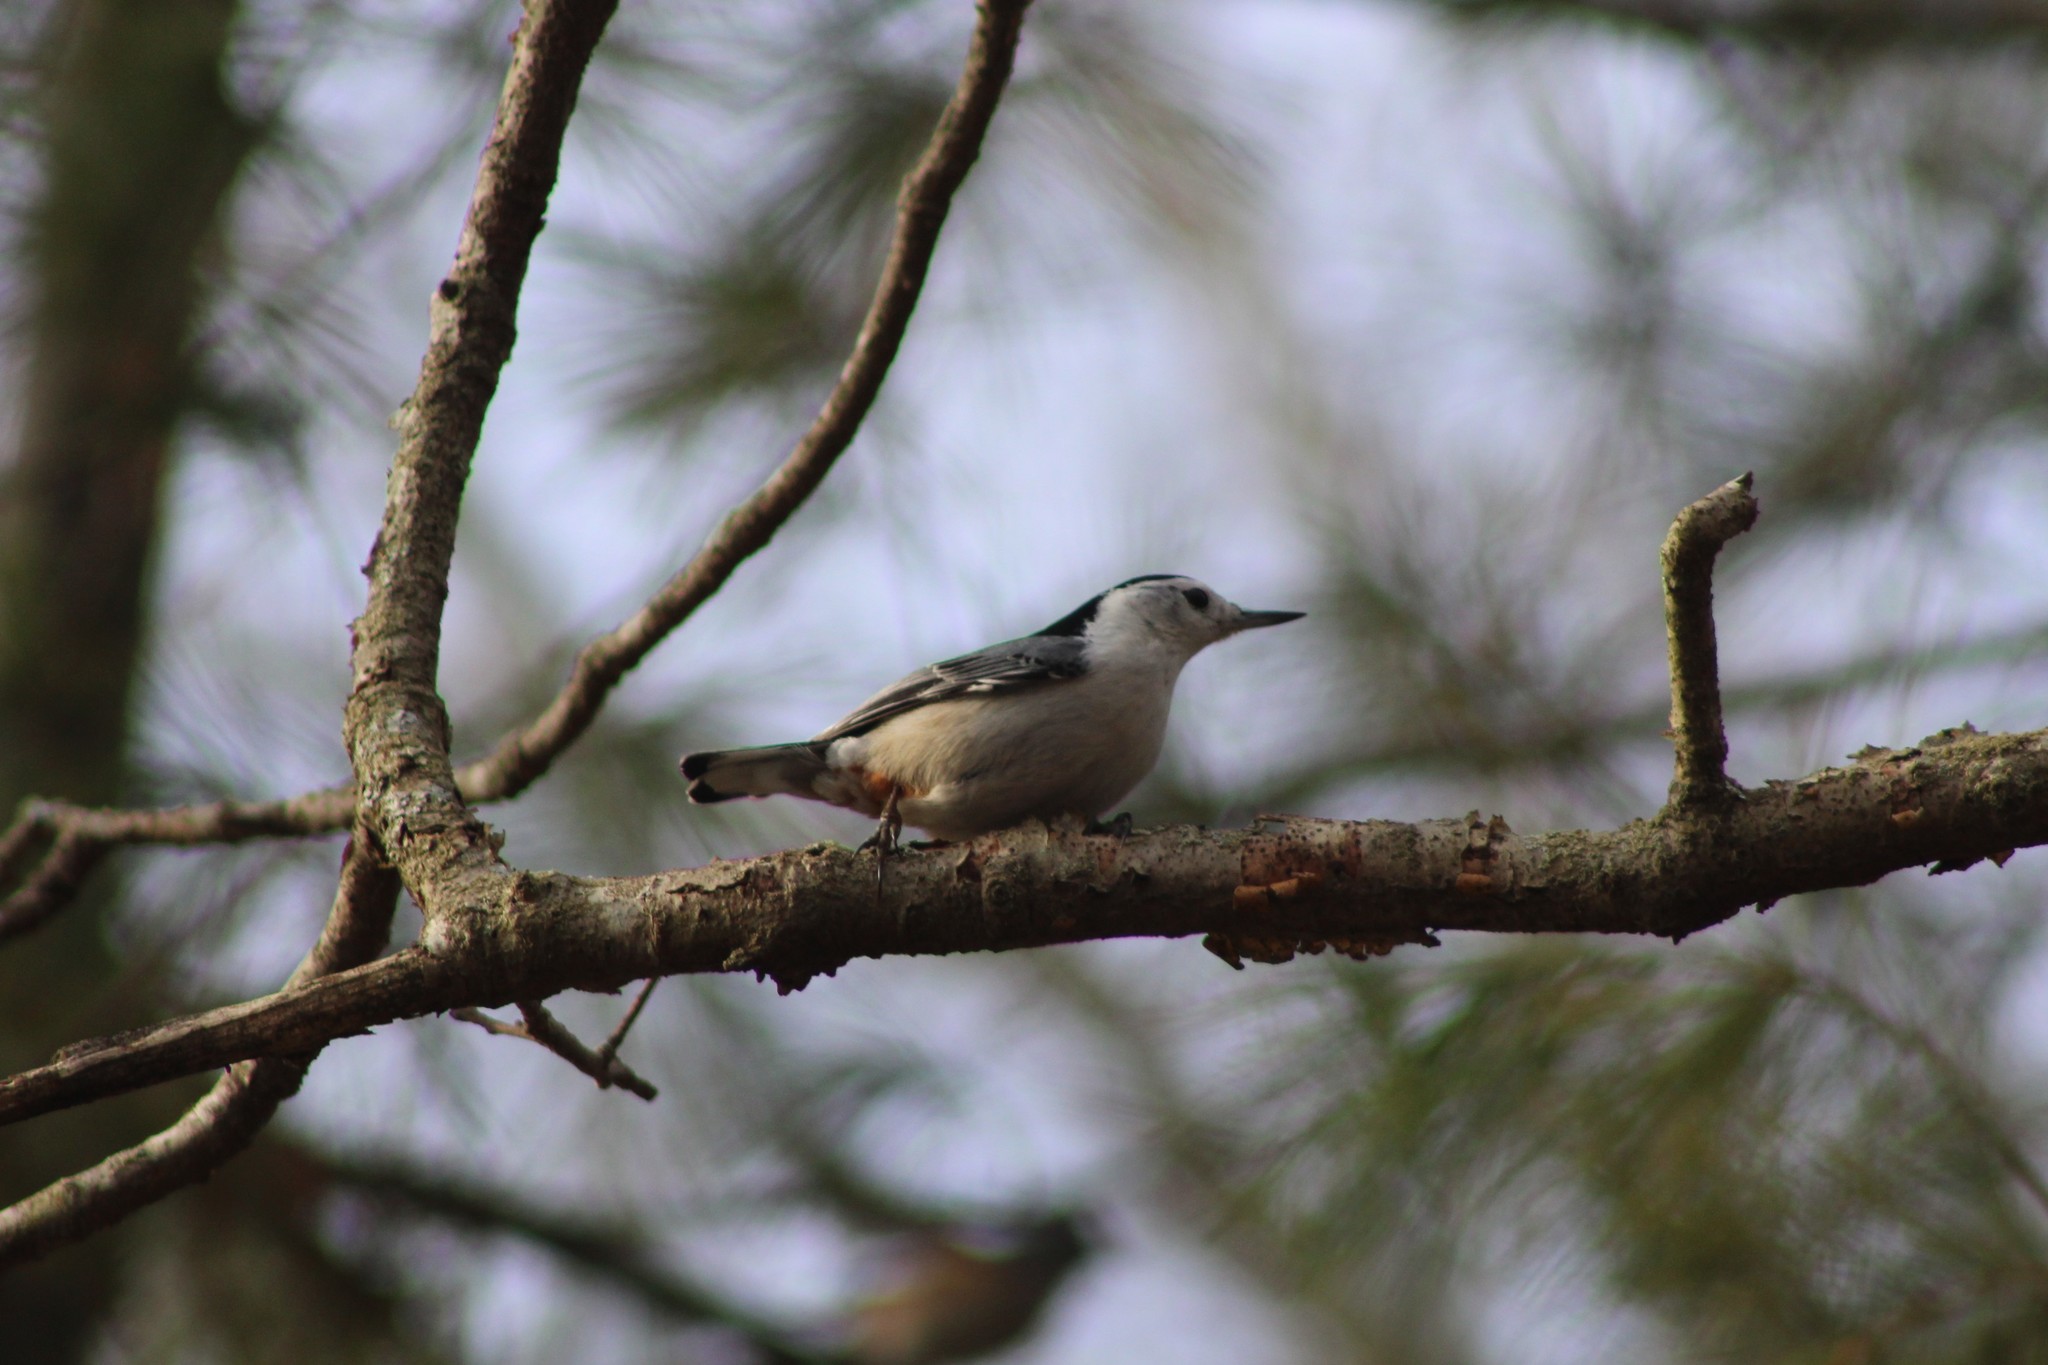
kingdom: Animalia
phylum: Chordata
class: Aves
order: Passeriformes
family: Sittidae
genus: Sitta
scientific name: Sitta carolinensis
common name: White-breasted nuthatch
